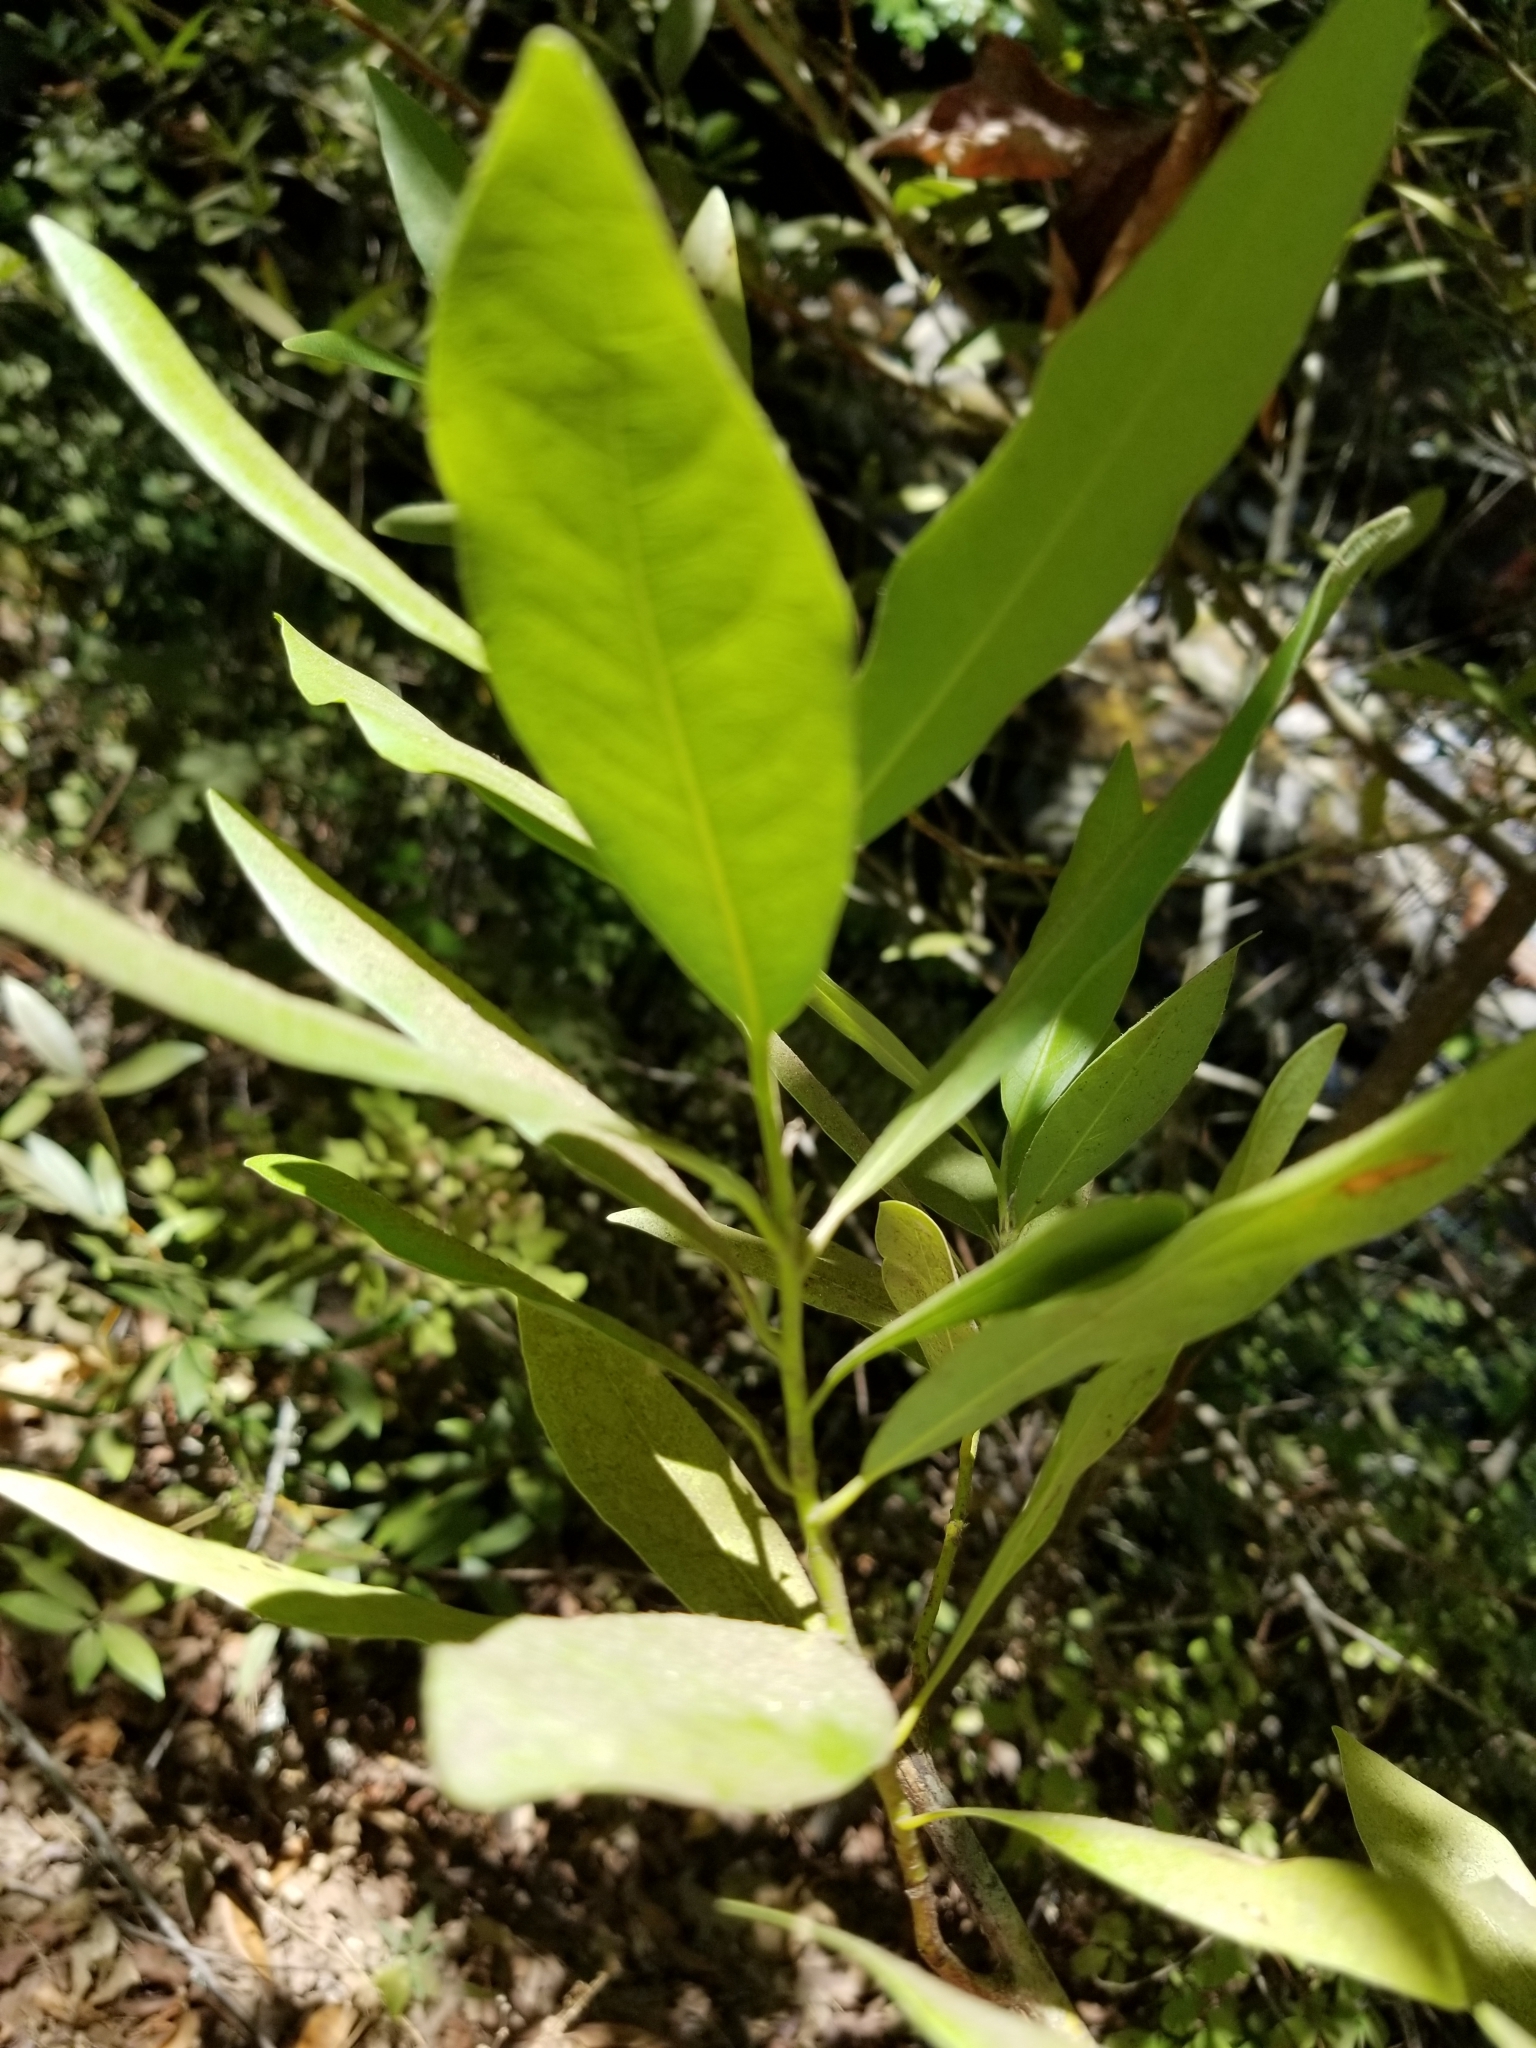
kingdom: Plantae
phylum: Tracheophyta
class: Magnoliopsida
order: Fagales
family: Fagaceae
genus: Chrysolepis
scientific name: Chrysolepis chrysophylla
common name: Giant chinquapin
